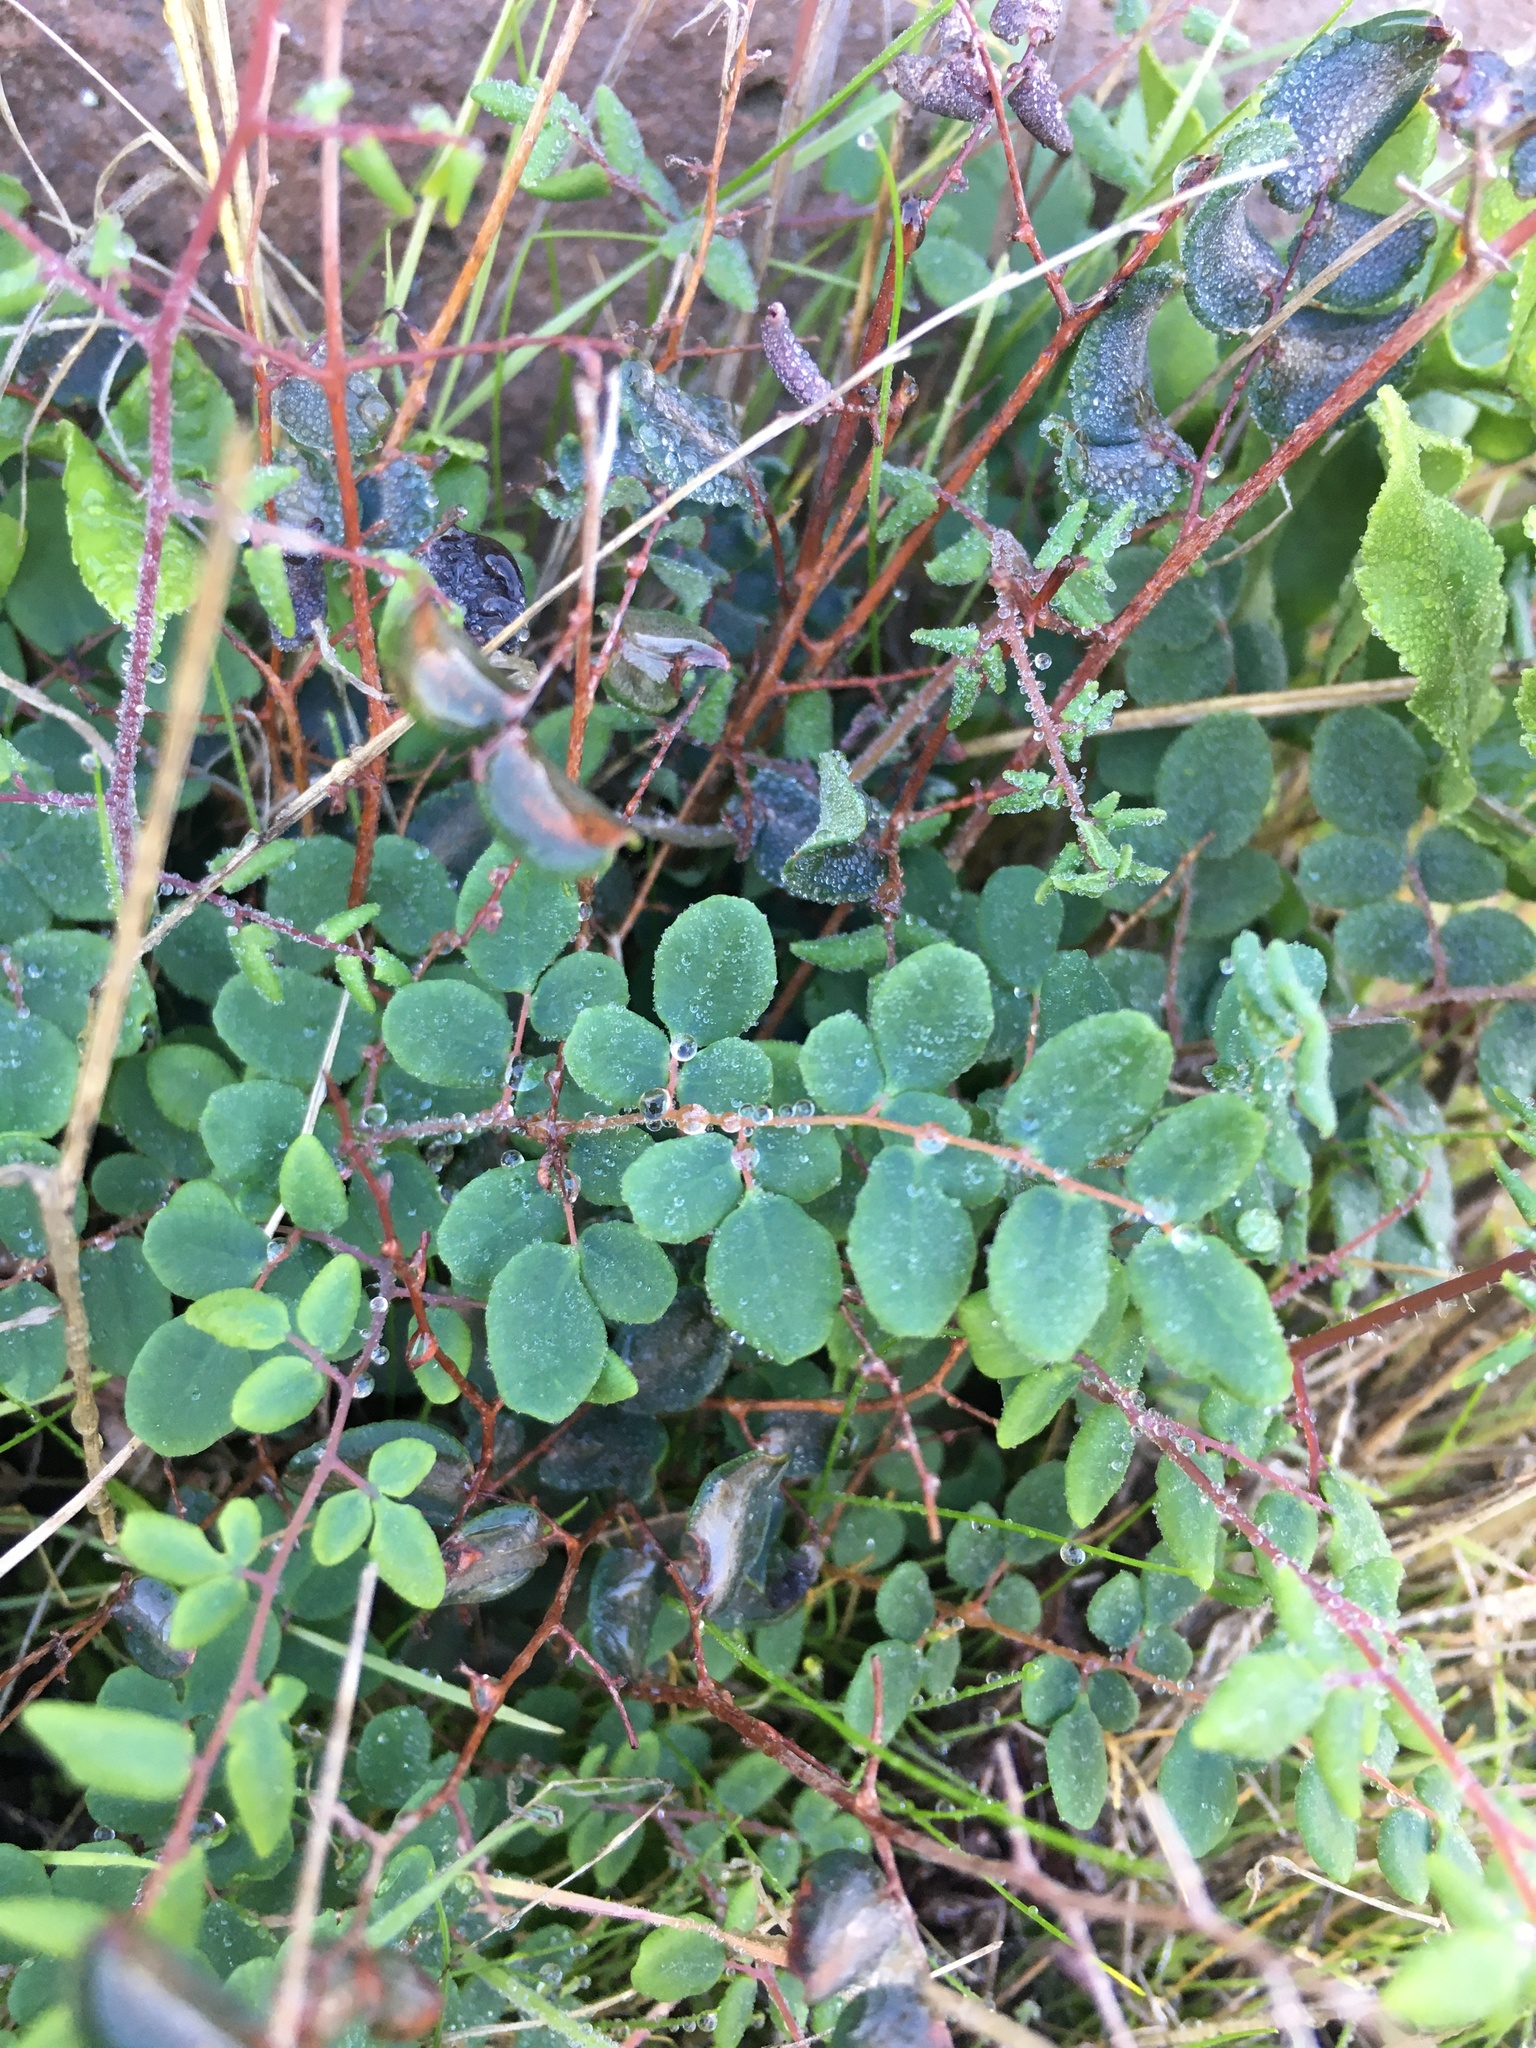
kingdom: Plantae
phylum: Tracheophyta
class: Polypodiopsida
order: Polypodiales
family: Pteridaceae
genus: Pellaea
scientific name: Pellaea andromedifolia
